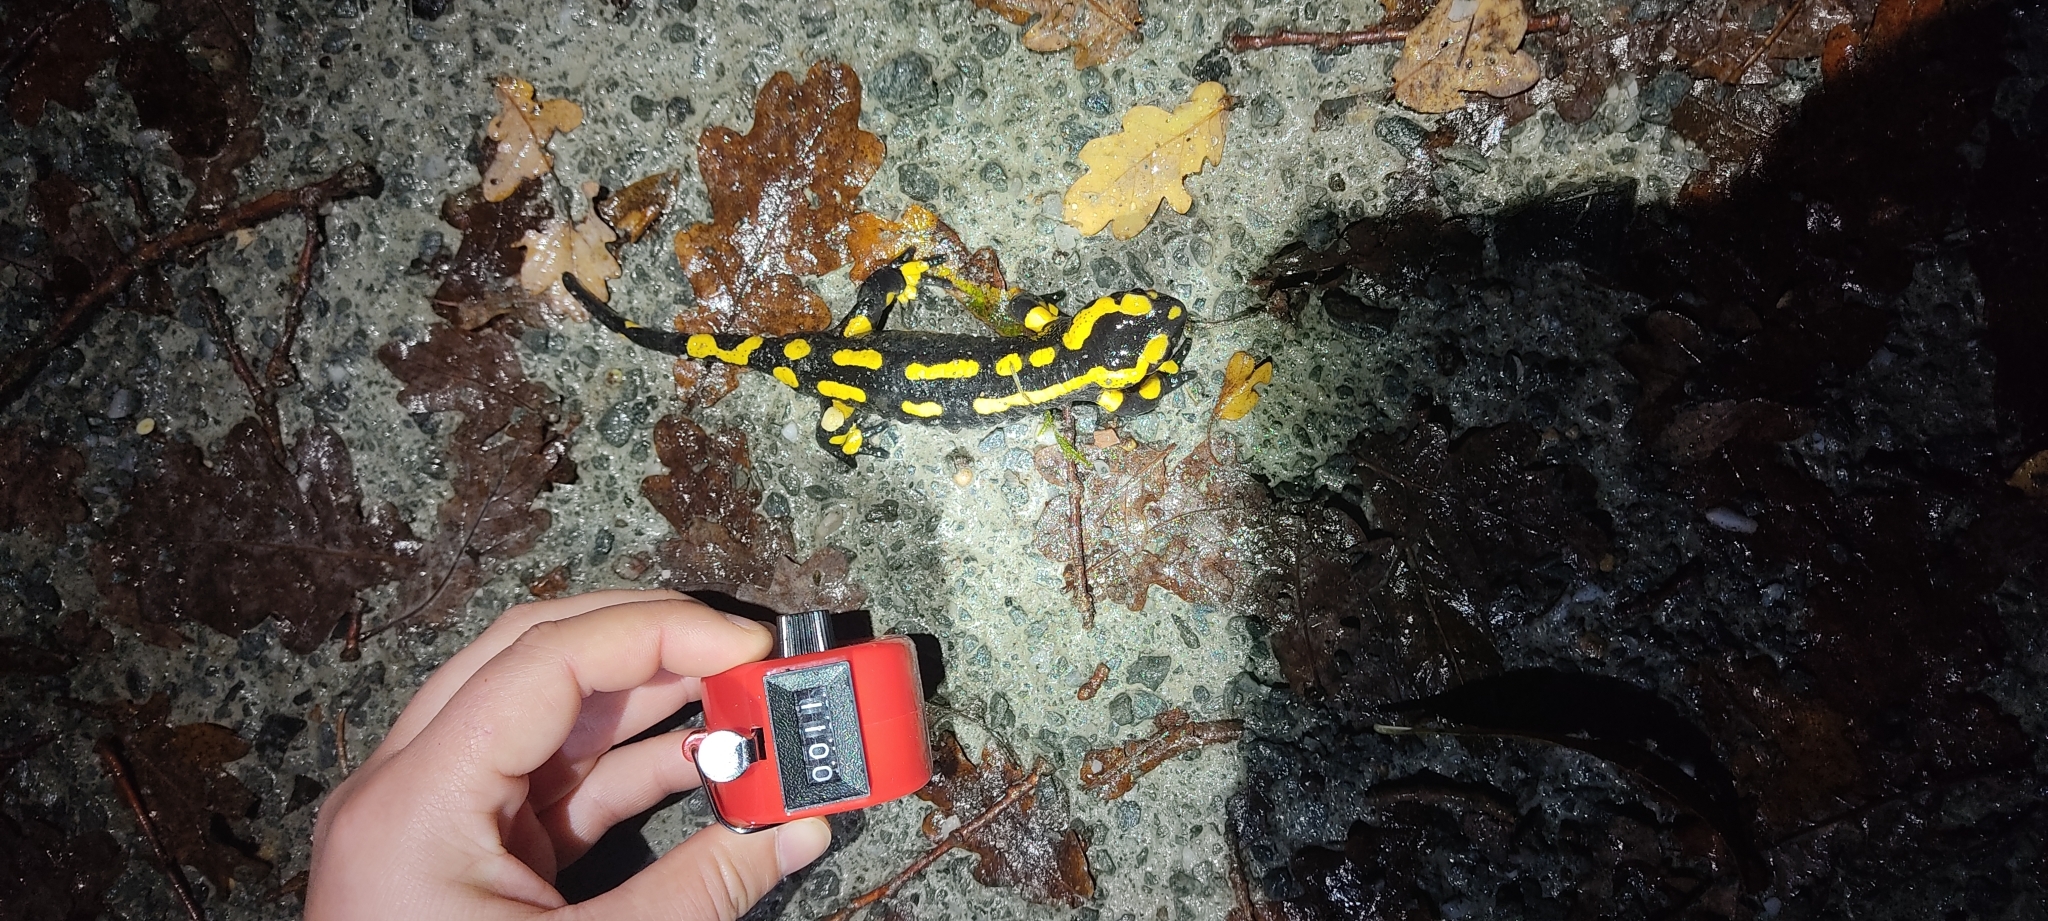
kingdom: Animalia
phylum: Chordata
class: Amphibia
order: Caudata
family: Salamandridae
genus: Salamandra
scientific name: Salamandra salamandra
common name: Fire salamander
